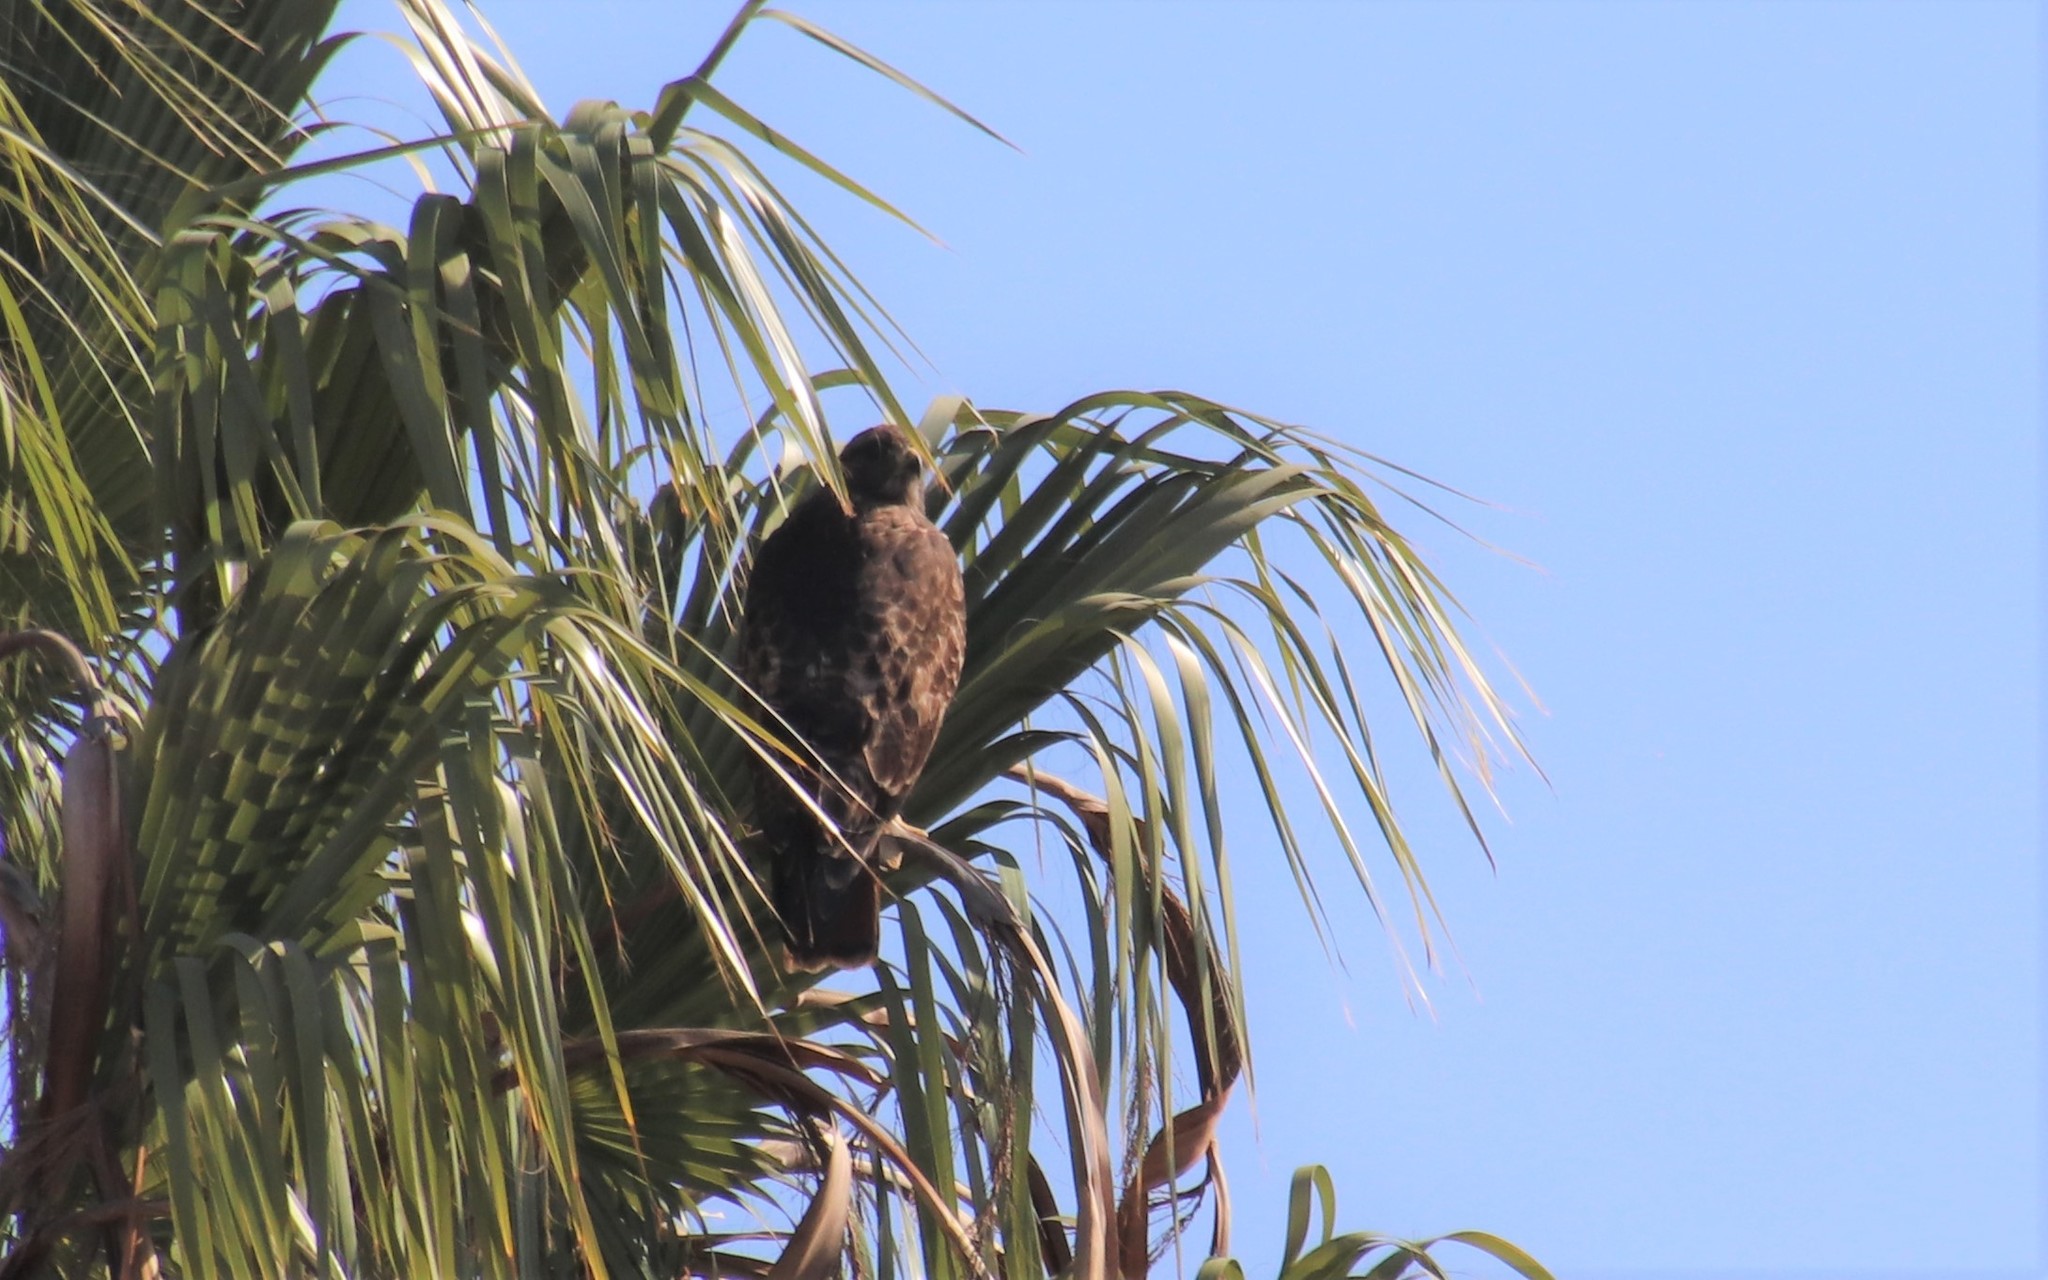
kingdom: Animalia
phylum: Chordata
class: Aves
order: Accipitriformes
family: Accipitridae
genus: Buteo
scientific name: Buteo jamaicensis
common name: Red-tailed hawk
